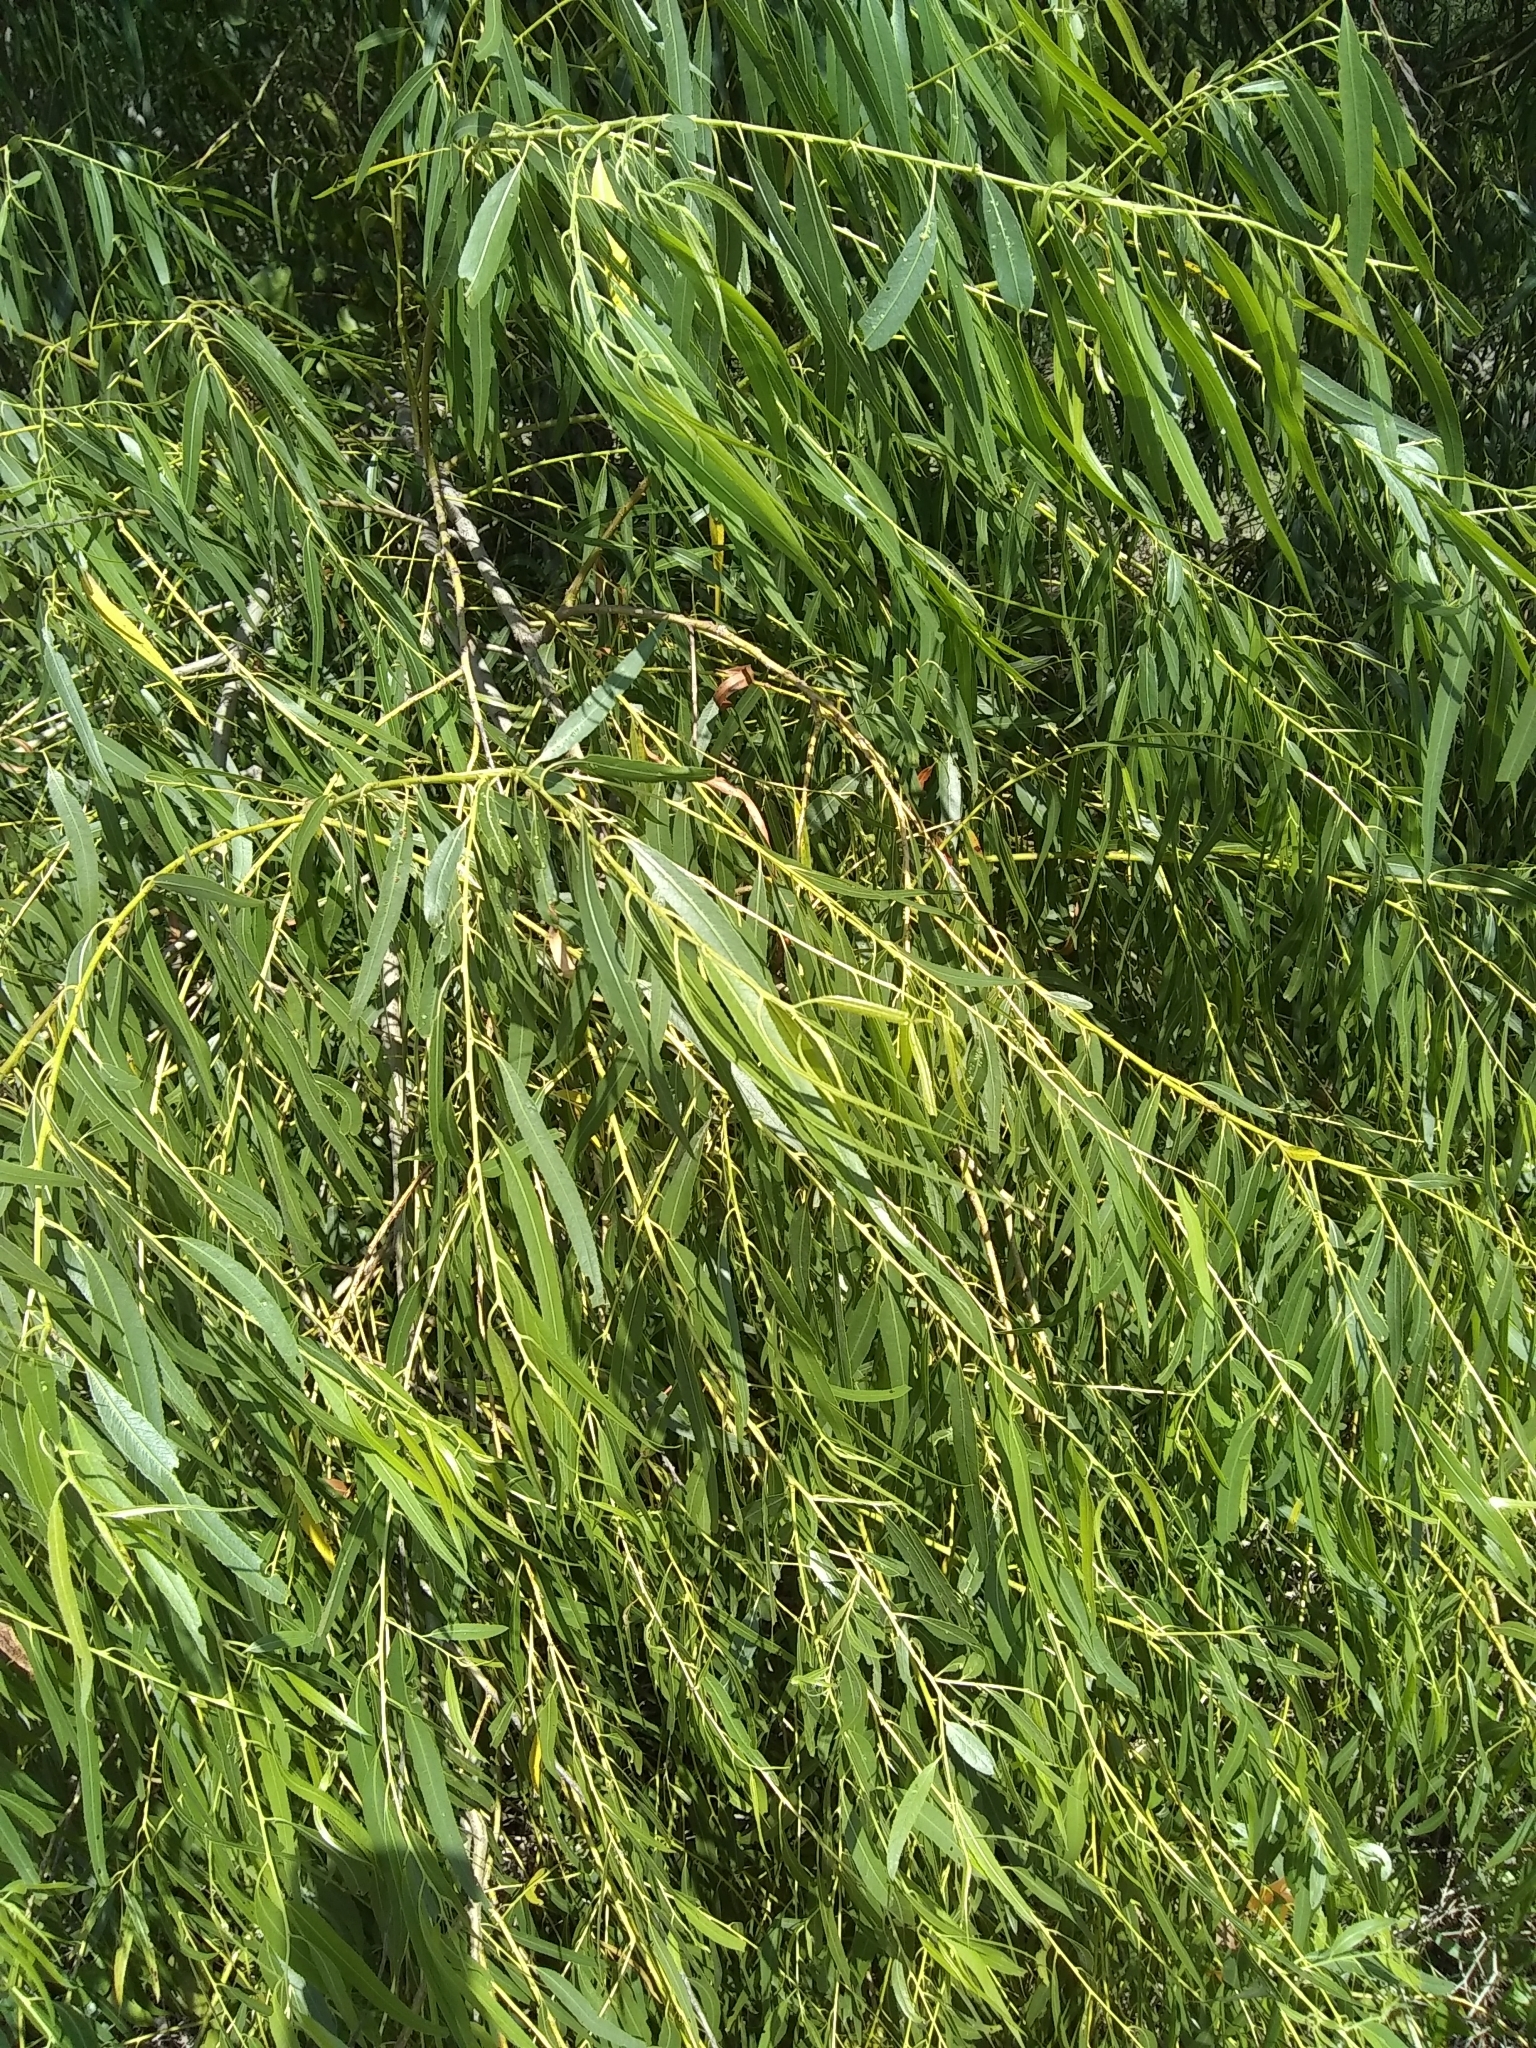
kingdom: Plantae
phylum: Tracheophyta
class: Magnoliopsida
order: Malpighiales
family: Salicaceae
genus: Salix
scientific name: Salix nigra
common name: Black willow
